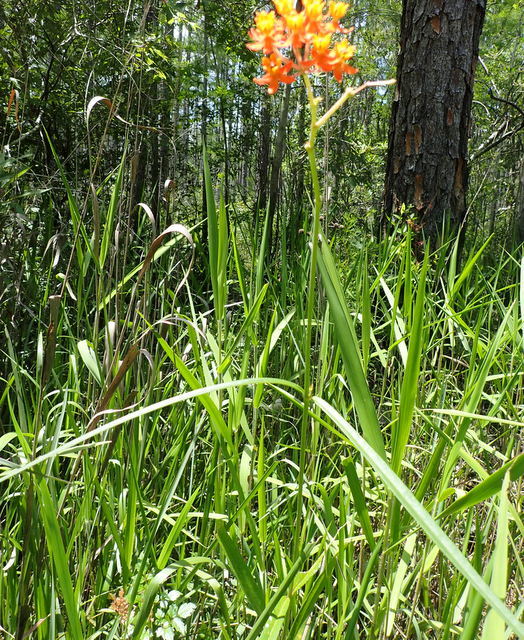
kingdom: Plantae
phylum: Tracheophyta
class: Magnoliopsida
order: Gentianales
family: Apocynaceae
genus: Asclepias
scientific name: Asclepias lanceolata
